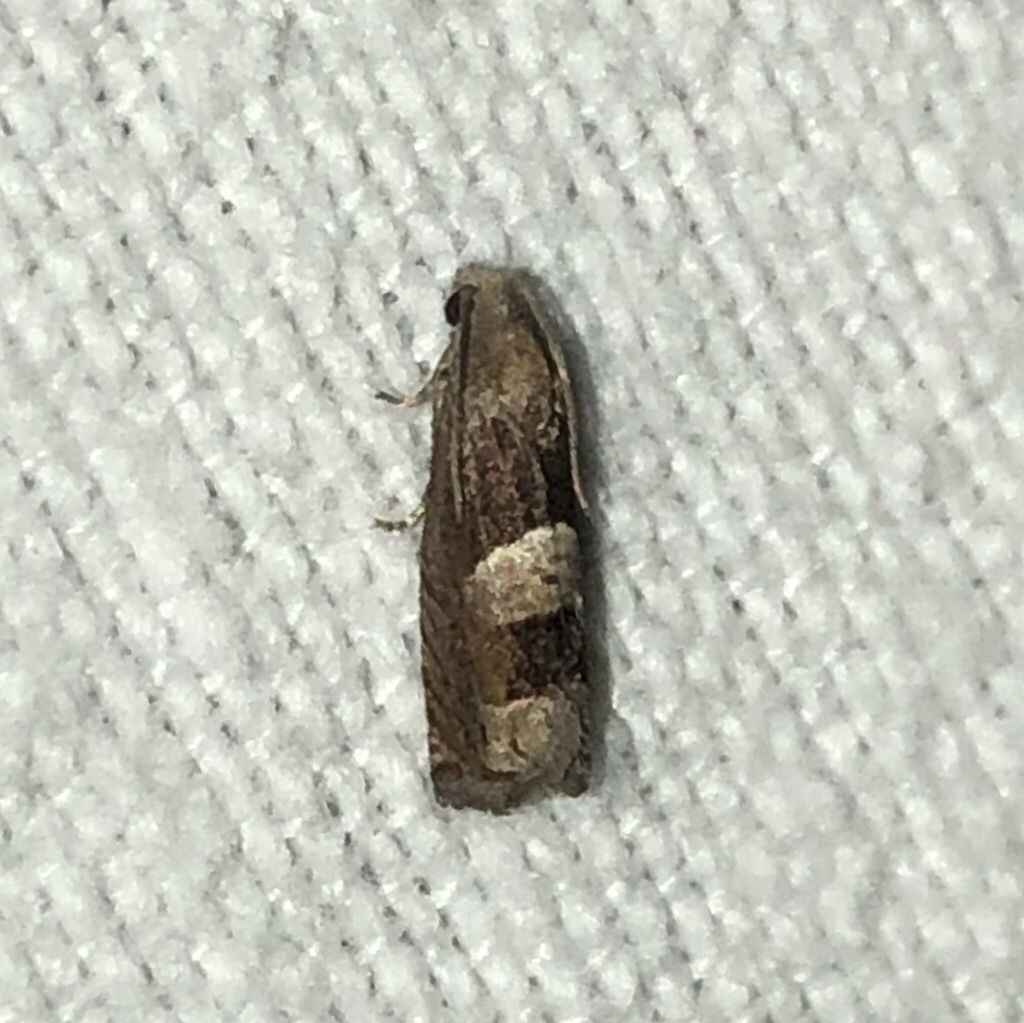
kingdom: Animalia
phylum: Arthropoda
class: Insecta
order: Lepidoptera
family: Tortricidae
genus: Epiblema
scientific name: Epiblema boxcana
